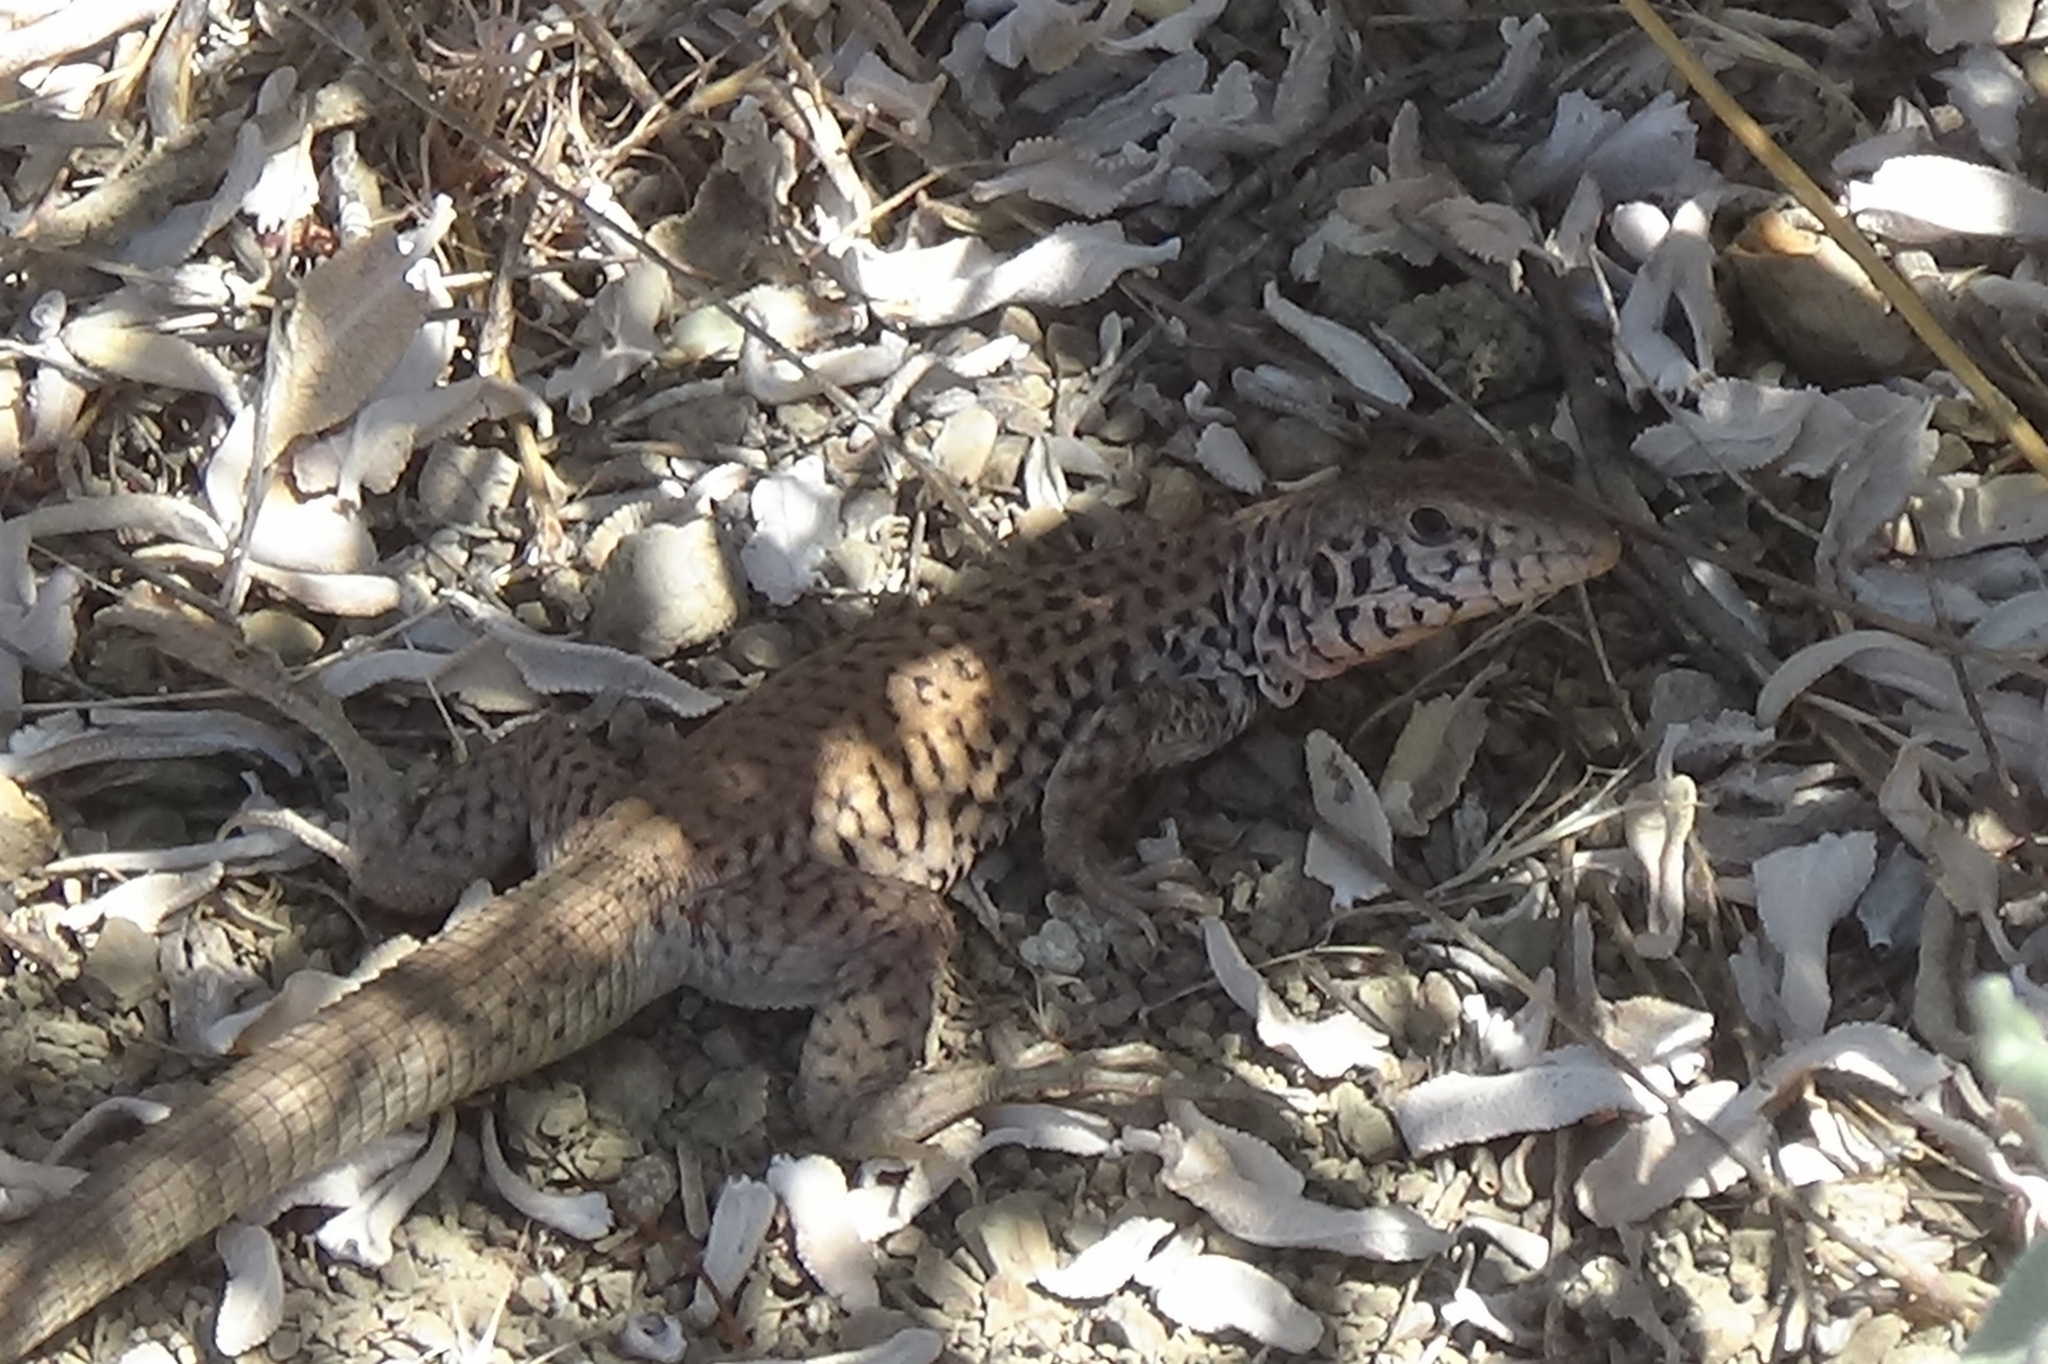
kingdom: Animalia
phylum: Chordata
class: Squamata
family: Teiidae
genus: Aspidoscelis
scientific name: Aspidoscelis tigris
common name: Tiger whiptail
